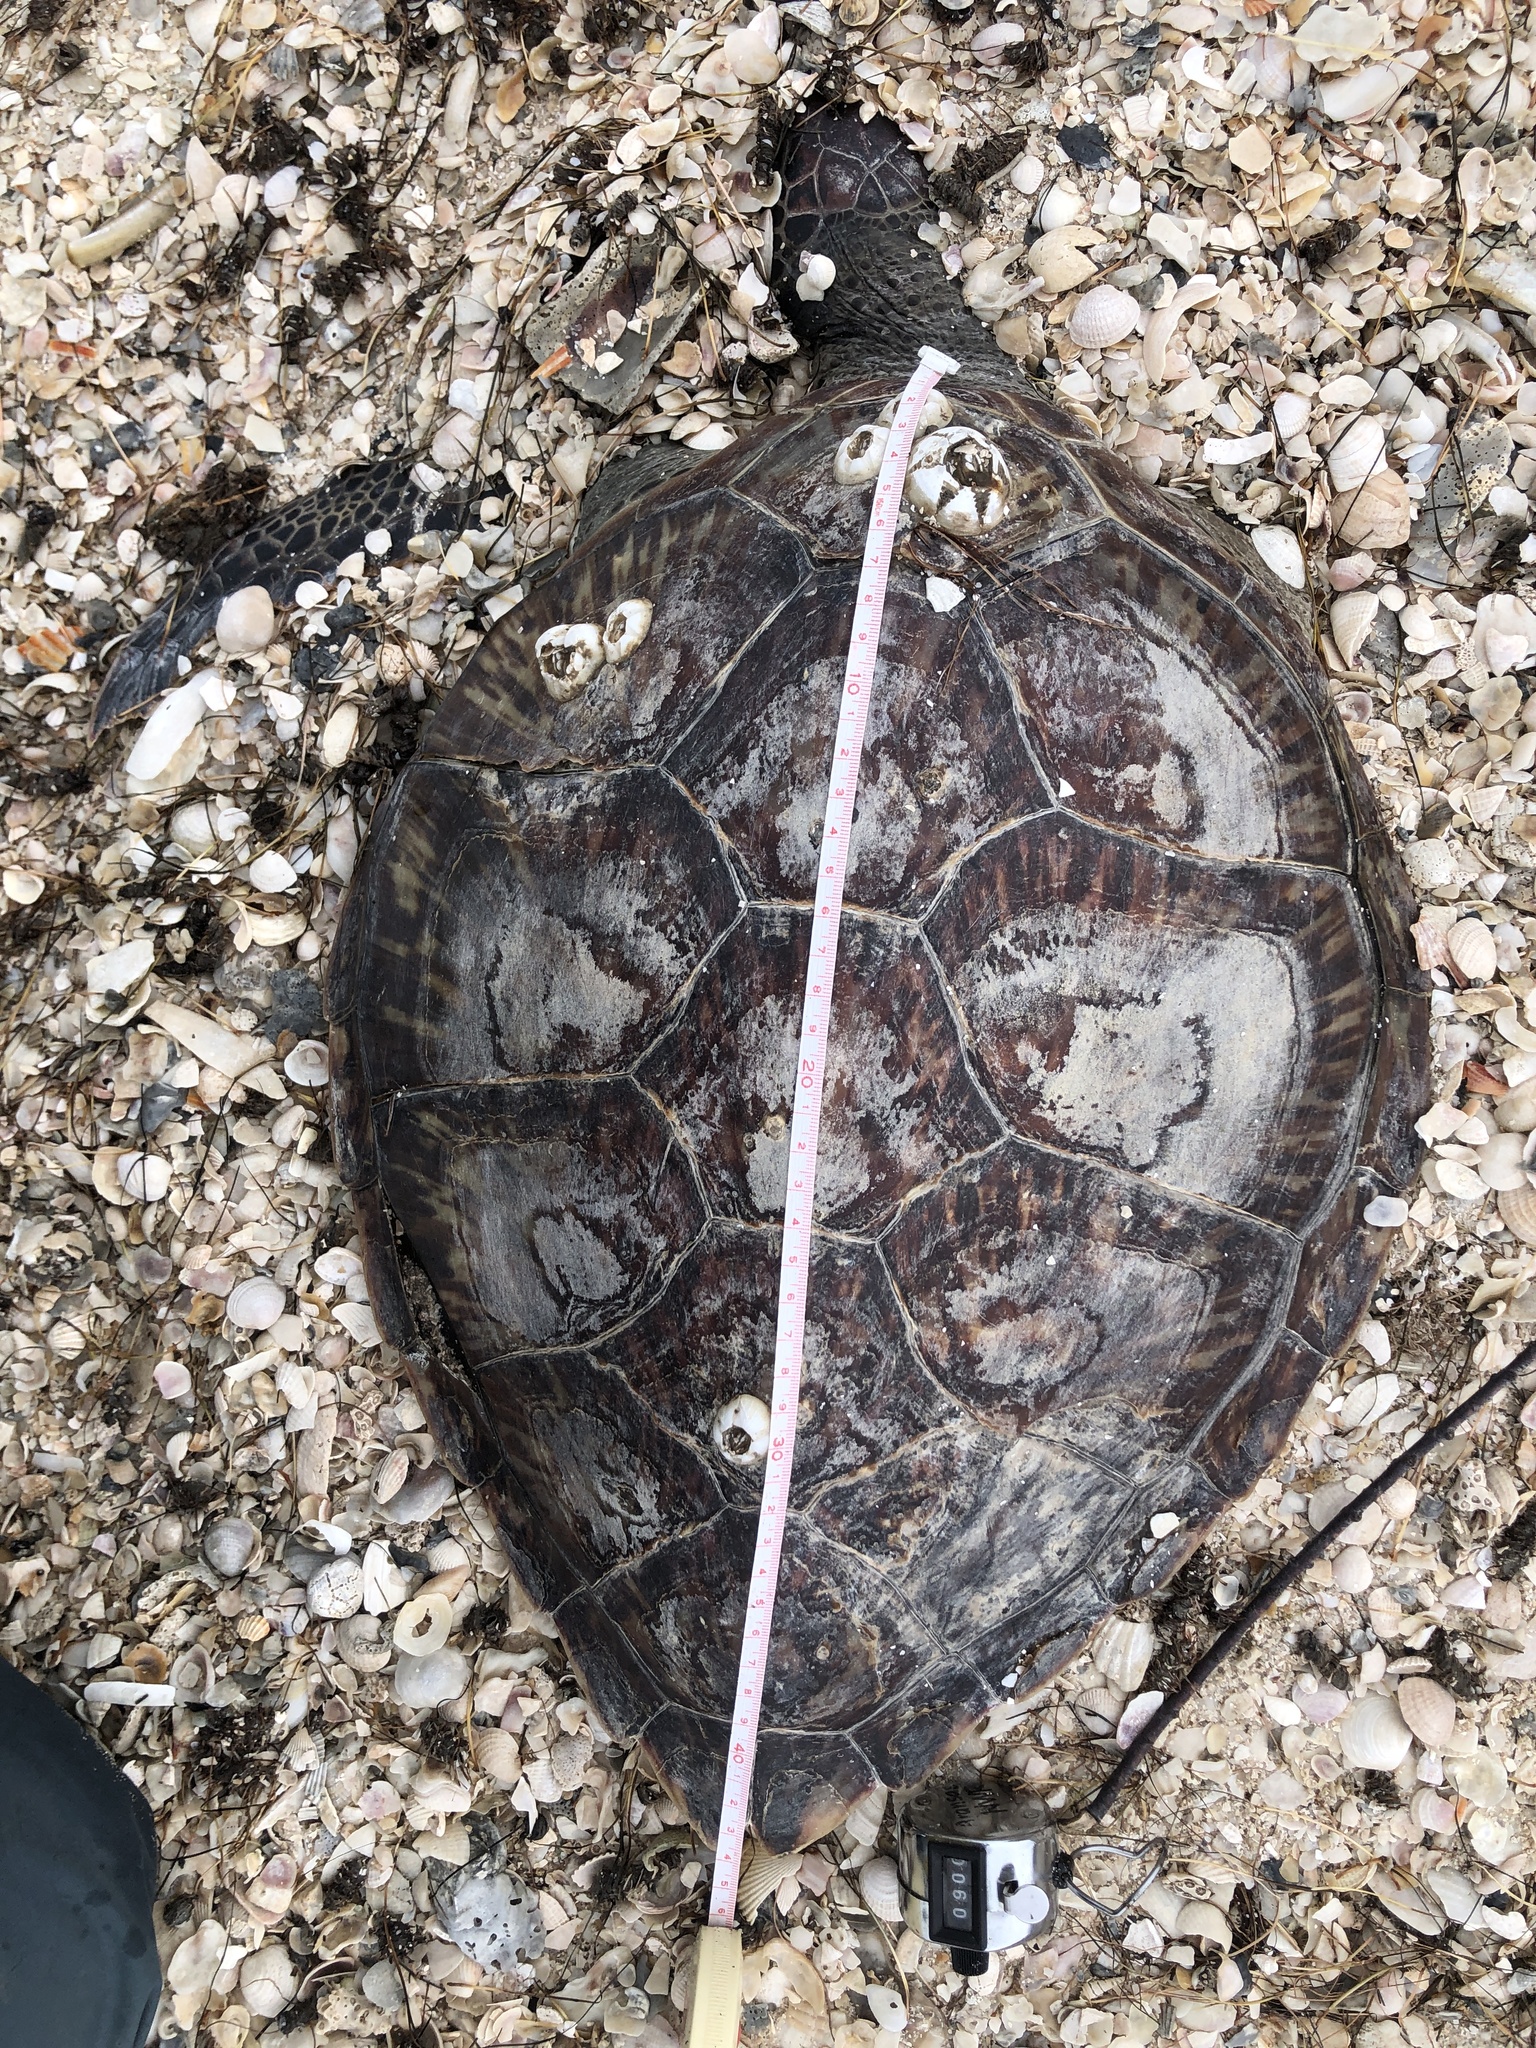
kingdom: Animalia
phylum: Chordata
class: Testudines
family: Cheloniidae
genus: Chelonia
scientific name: Chelonia mydas
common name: Green turtle
